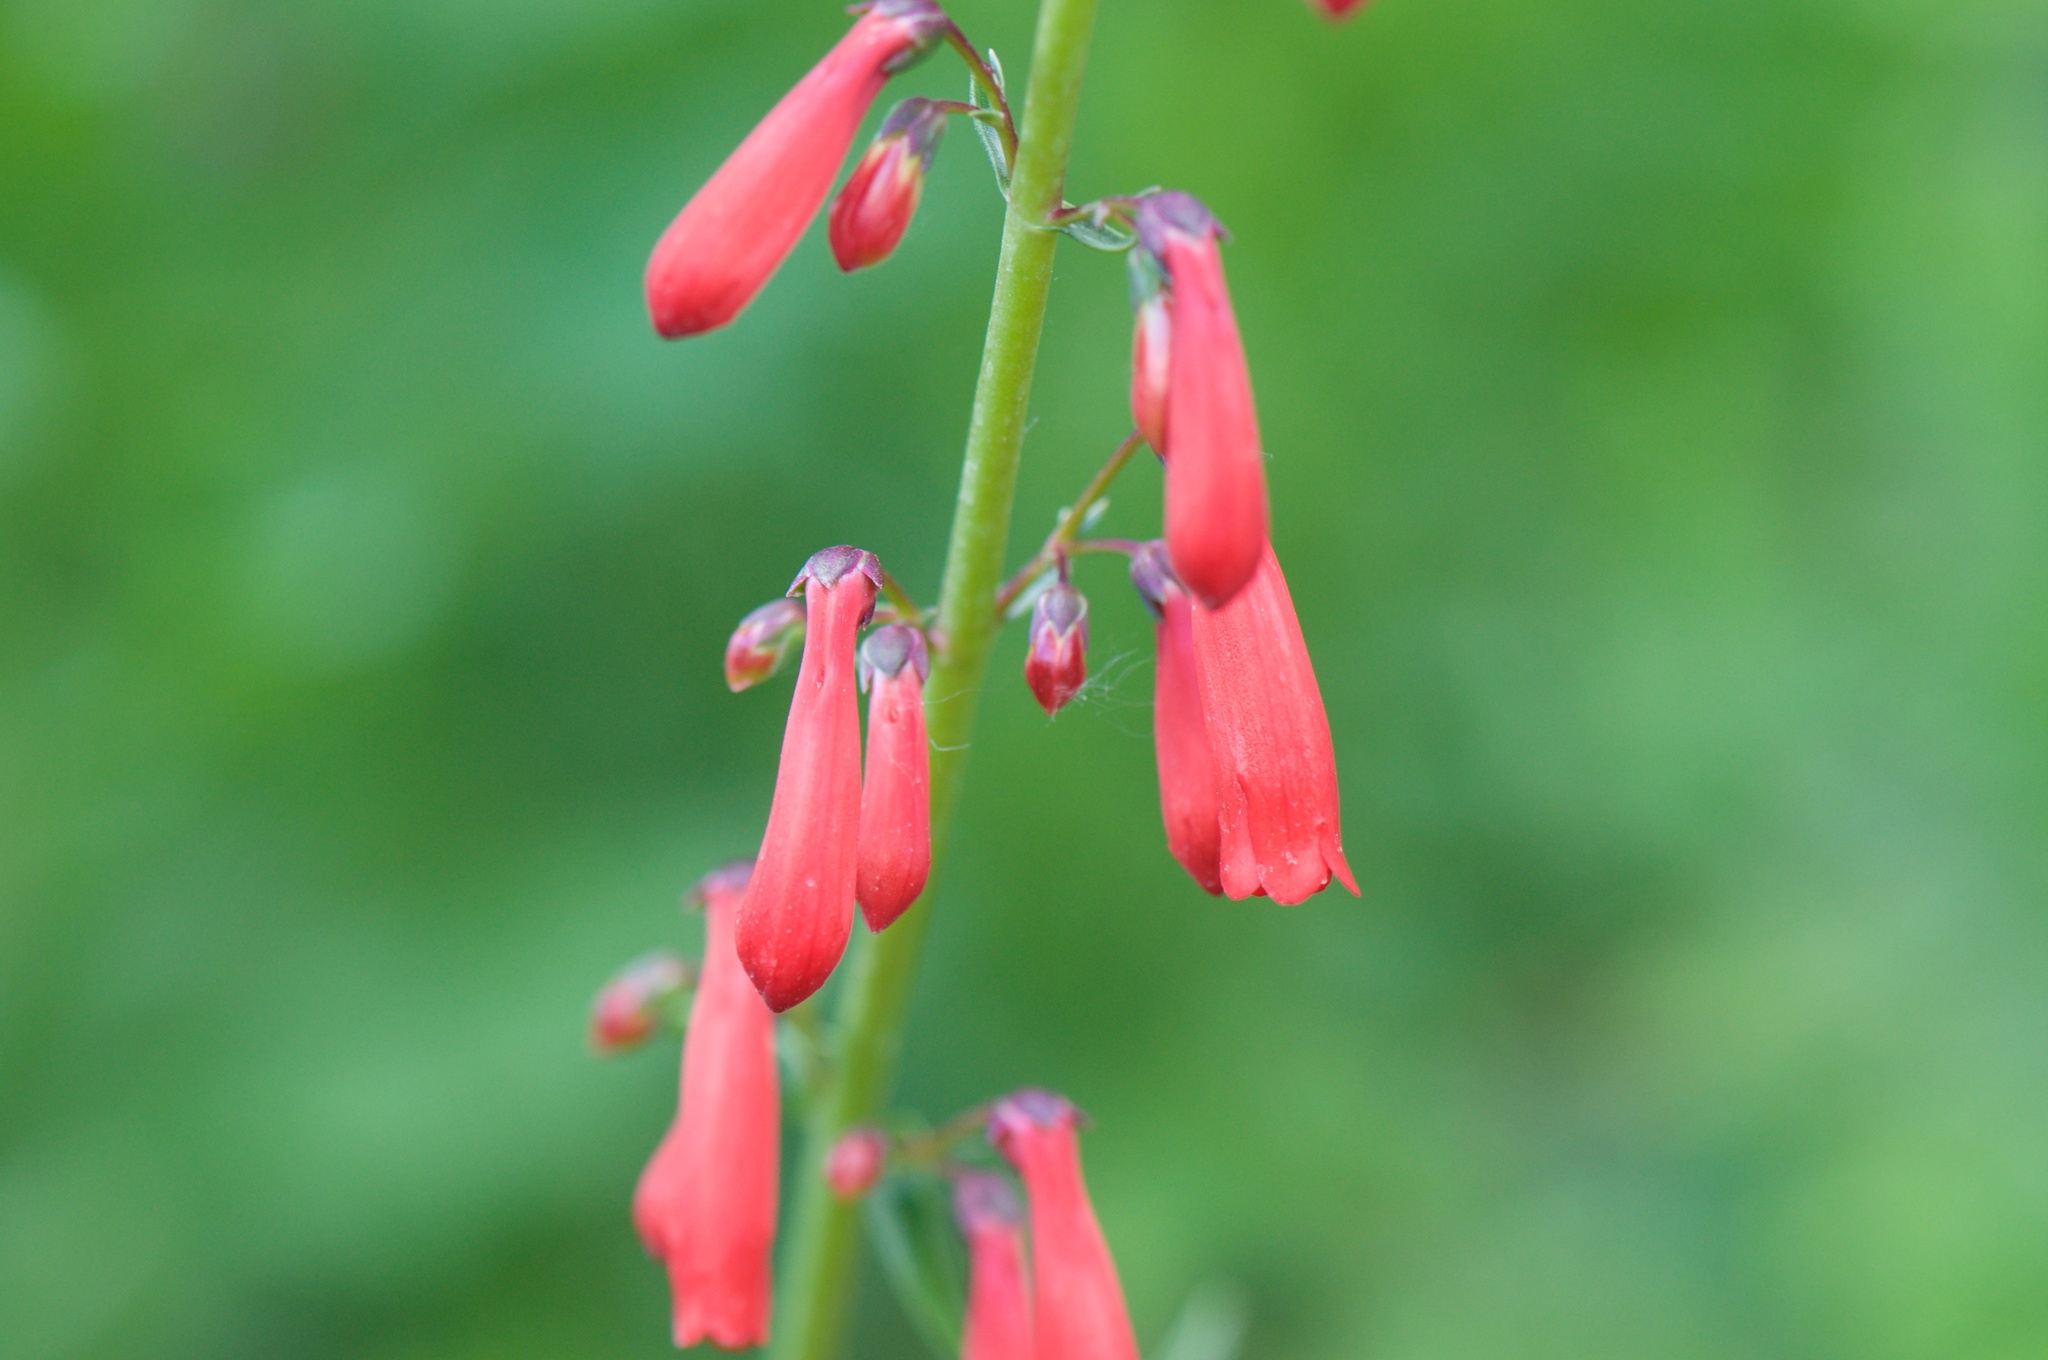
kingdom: Plantae
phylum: Tracheophyta
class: Magnoliopsida
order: Lamiales
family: Plantaginaceae
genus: Penstemon
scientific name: Penstemon eatonii
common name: Eaton's penstemon
